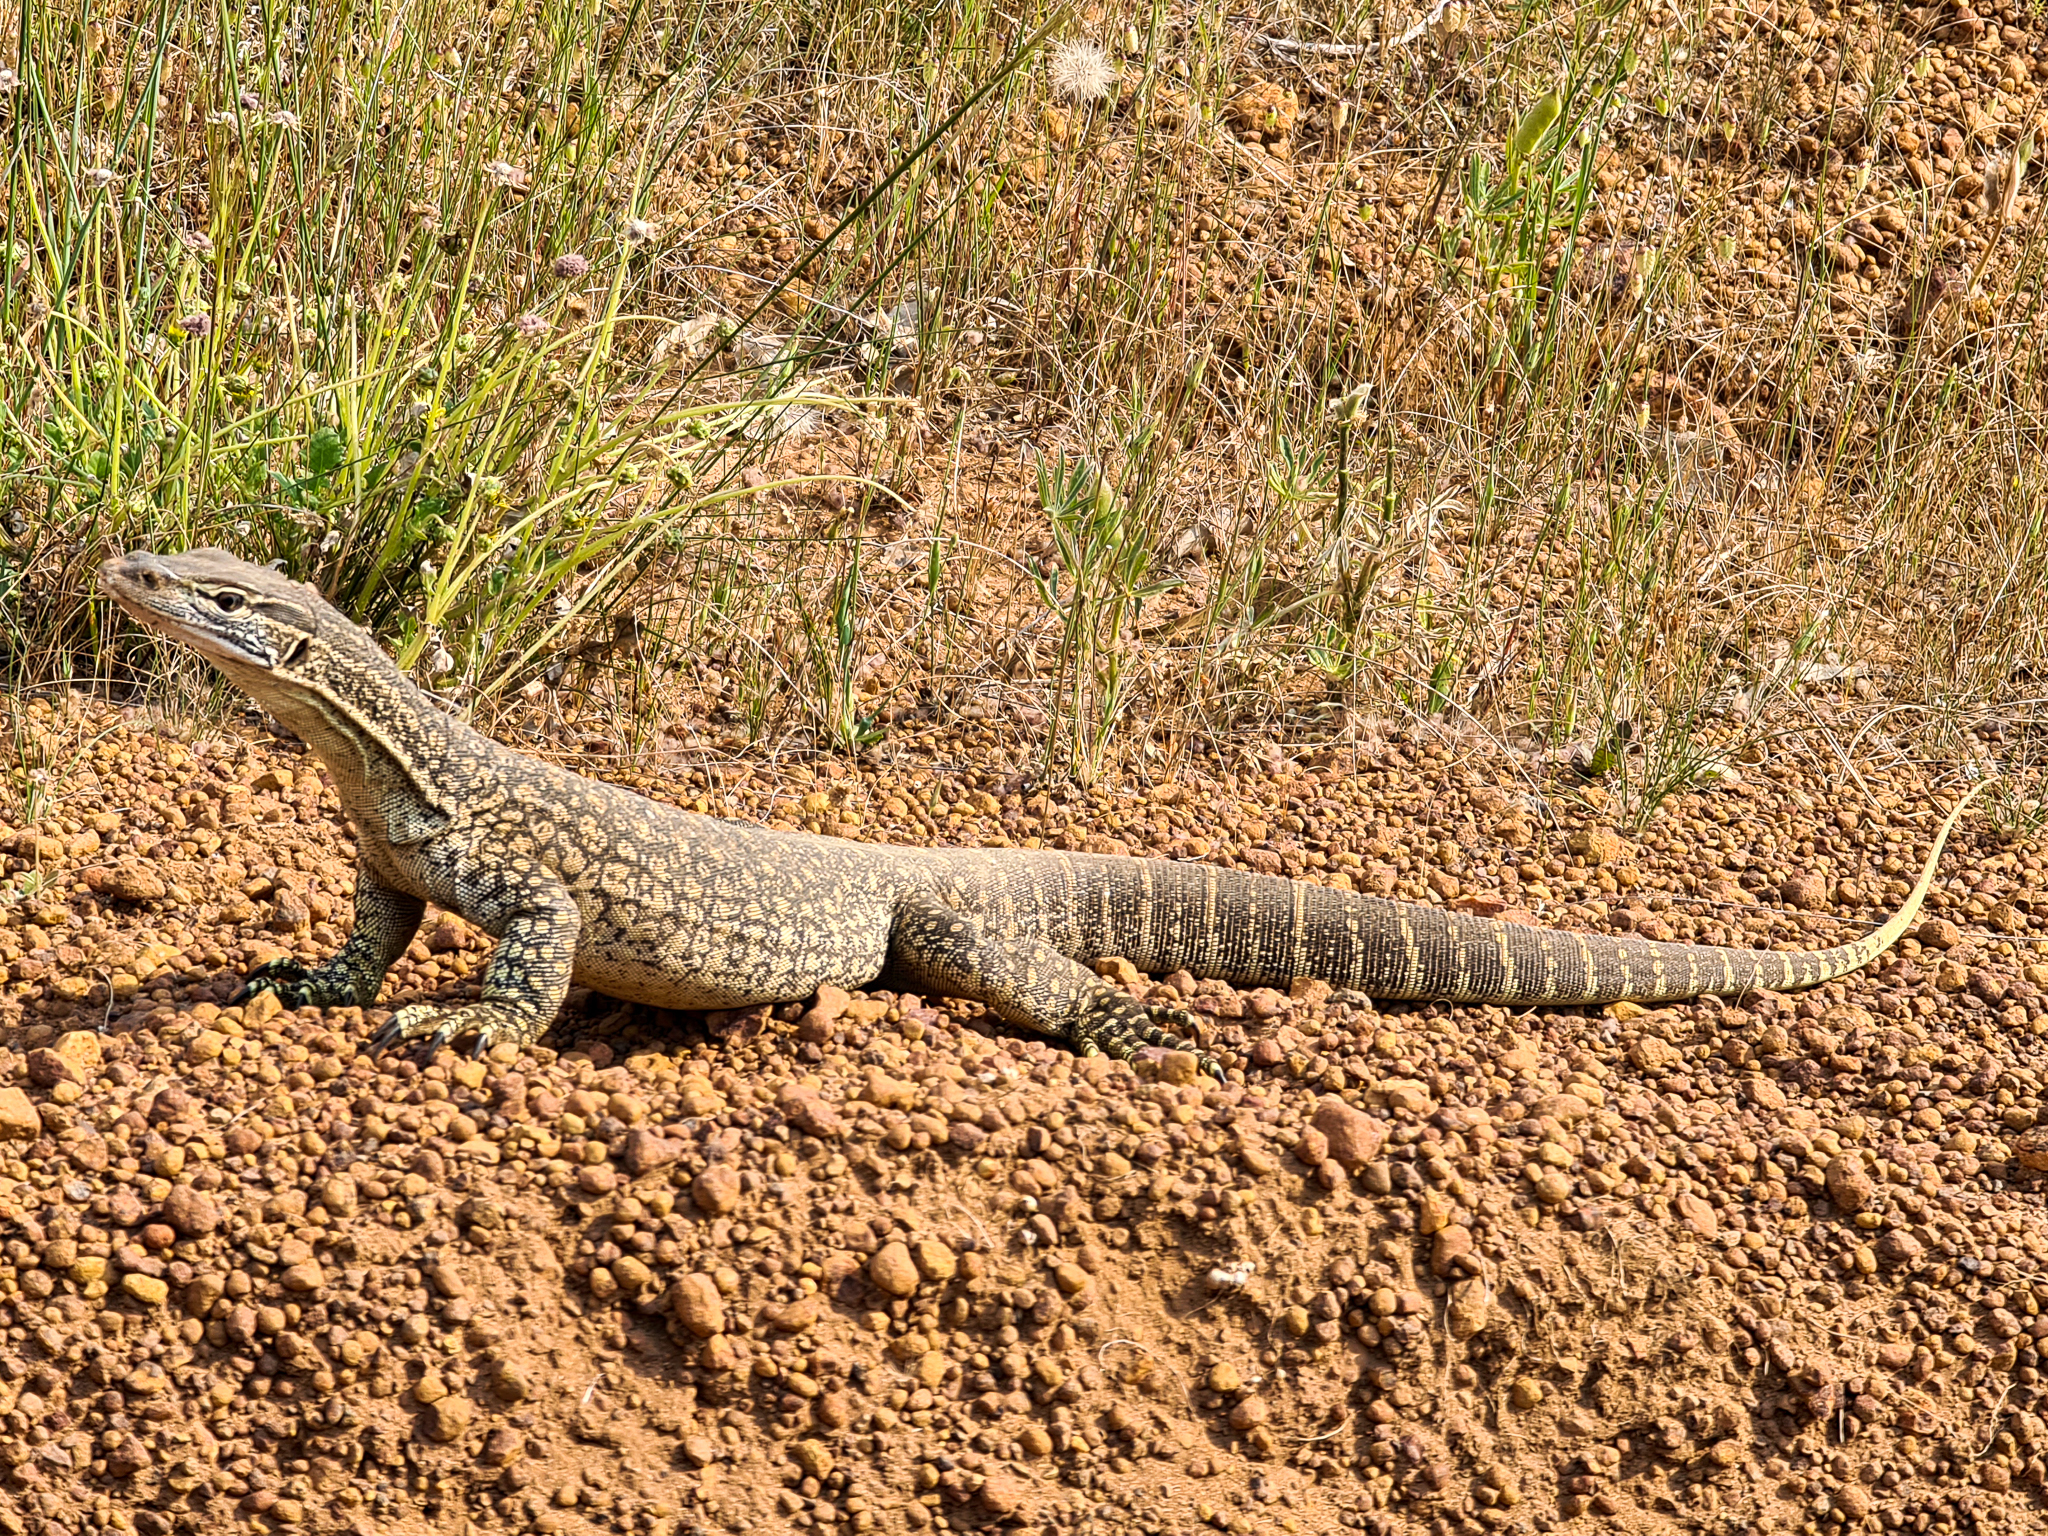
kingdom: Animalia
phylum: Chordata
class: Squamata
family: Varanidae
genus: Varanus
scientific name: Varanus gouldii
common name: Gould's goanna
